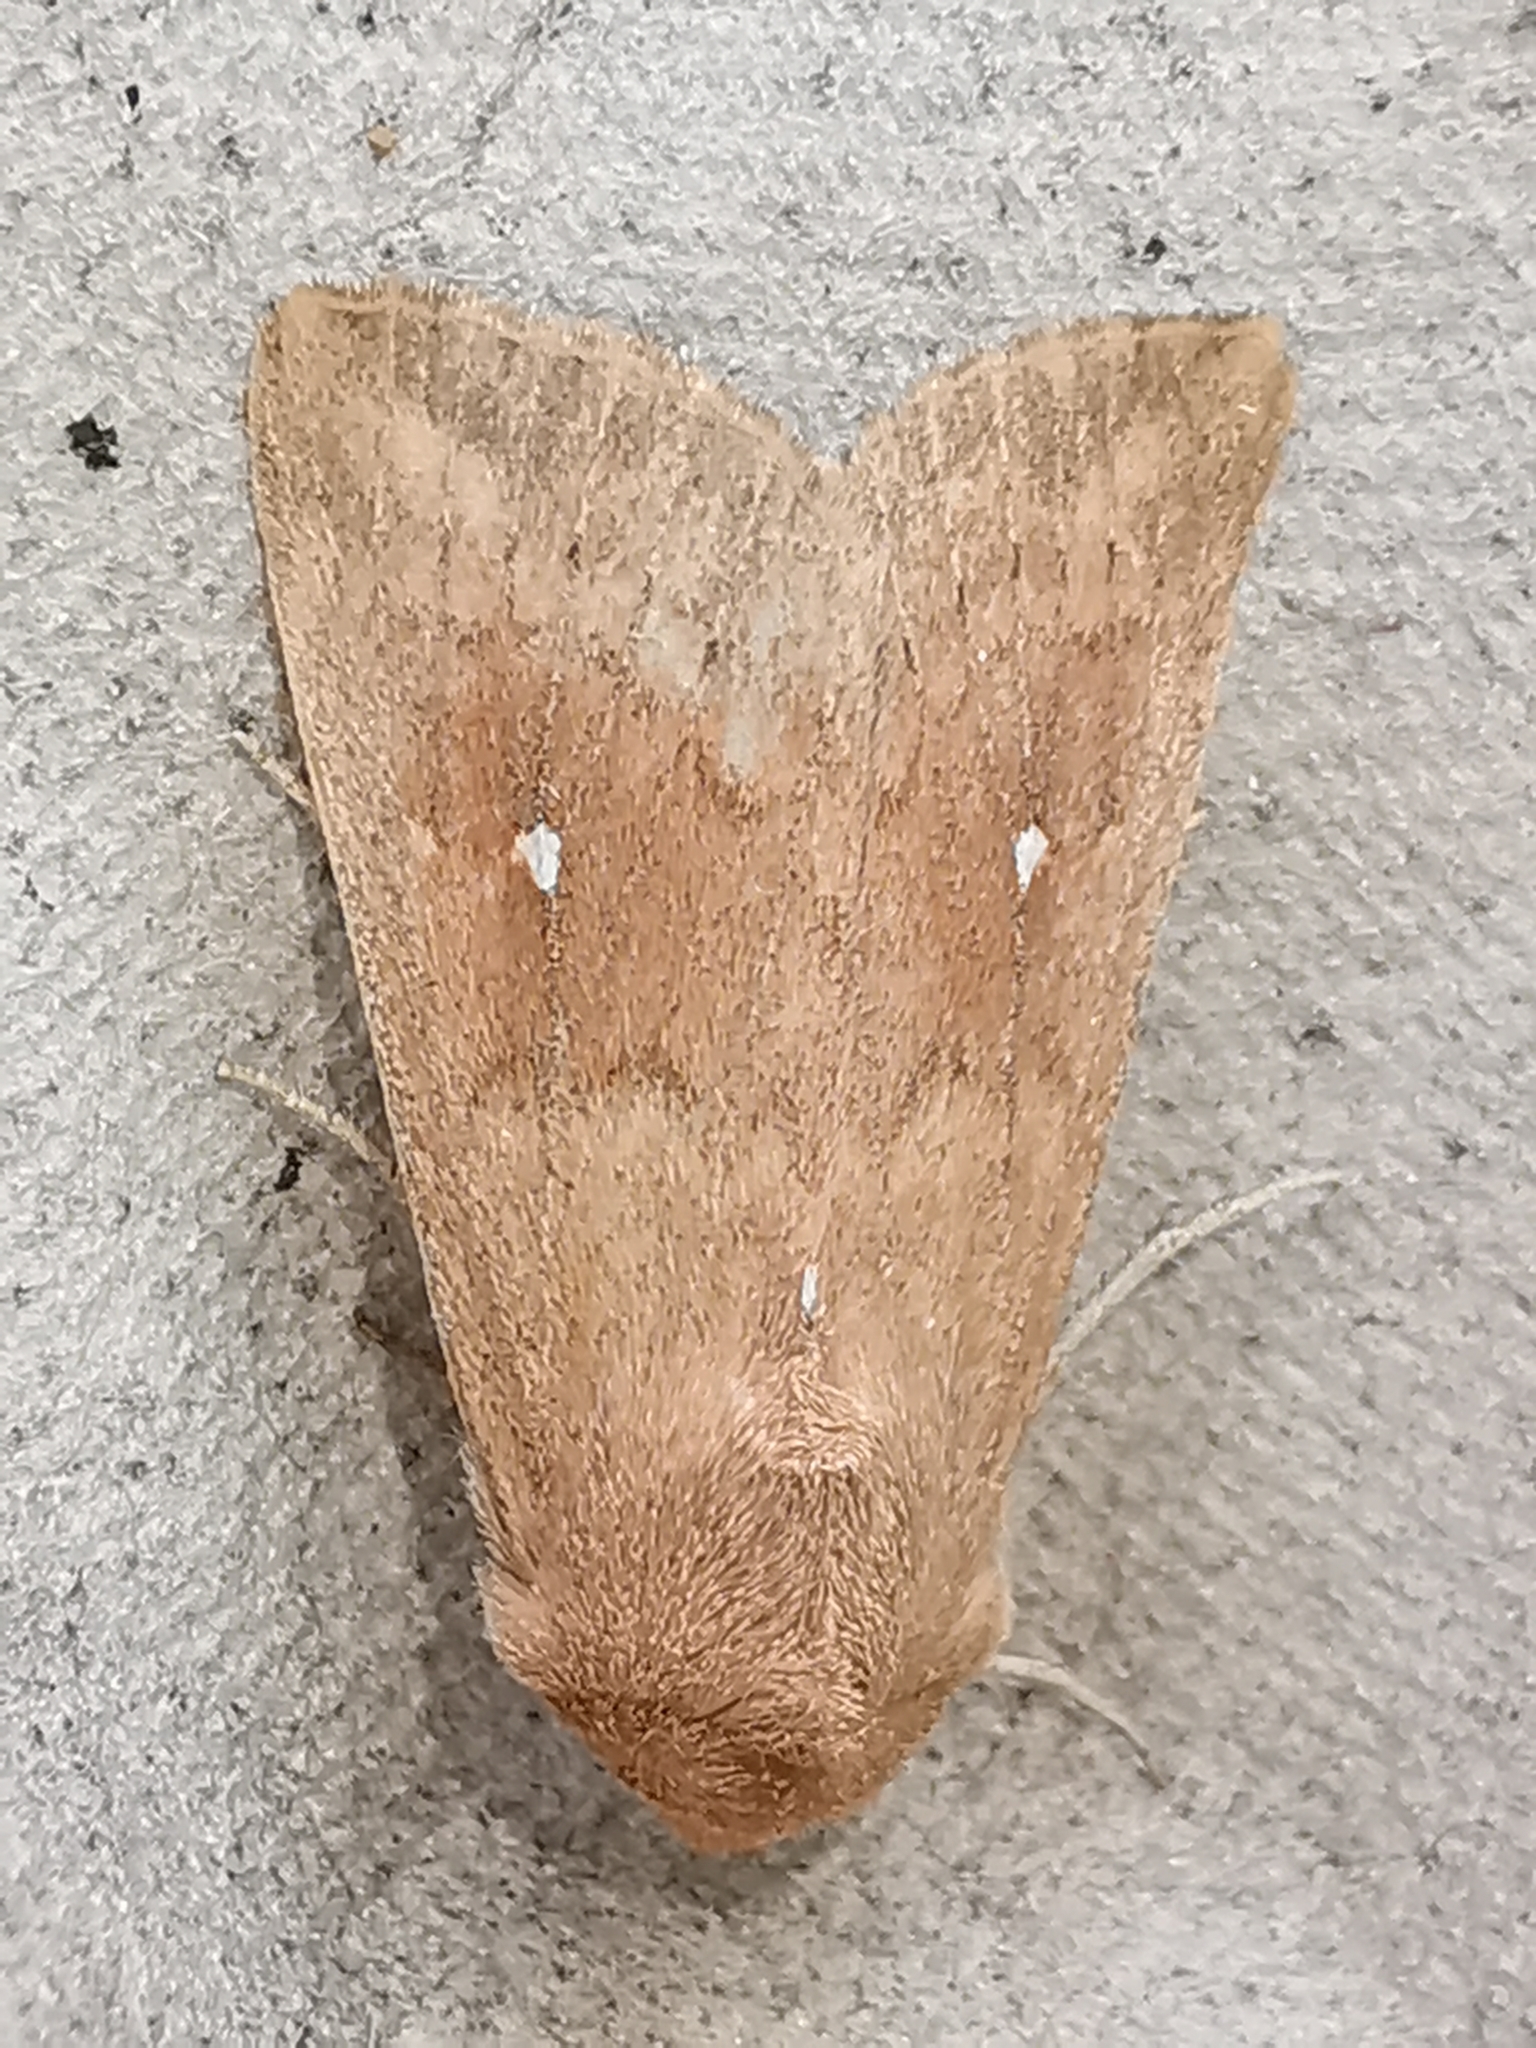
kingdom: Animalia
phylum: Arthropoda
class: Insecta
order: Lepidoptera
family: Noctuidae
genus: Mythimna
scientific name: Mythimna albipuncta
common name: White-point
